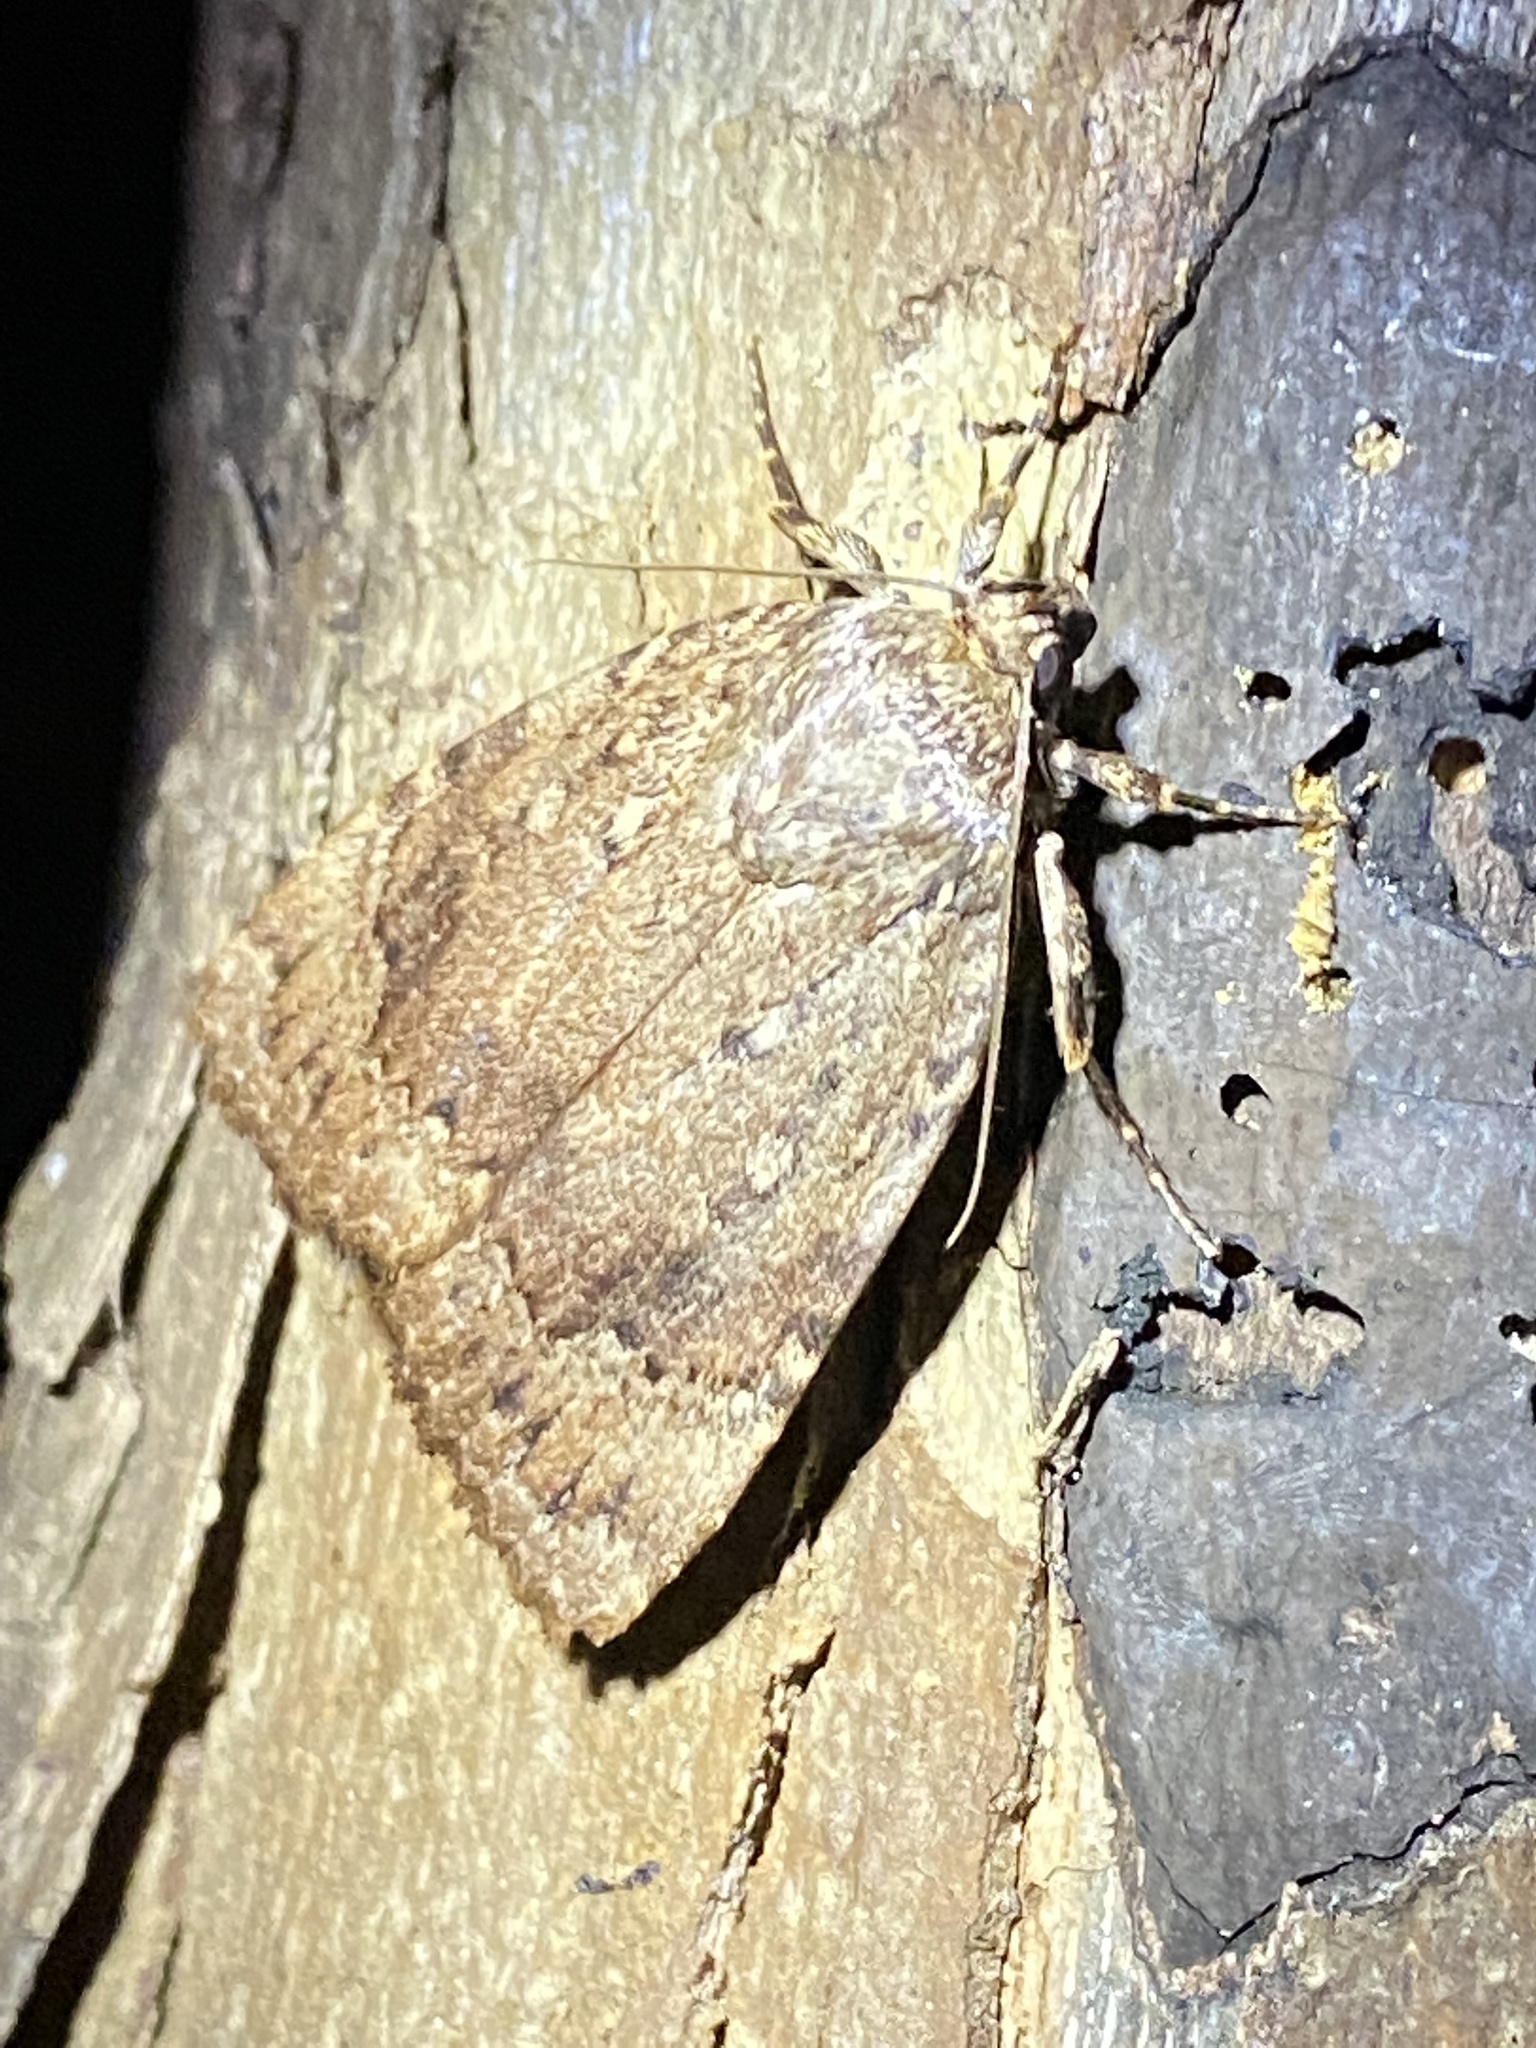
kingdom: Animalia
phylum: Arthropoda
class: Insecta
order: Lepidoptera
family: Noctuidae
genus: Amphipyra
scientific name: Amphipyra pyramidoides
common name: American copper underwing
